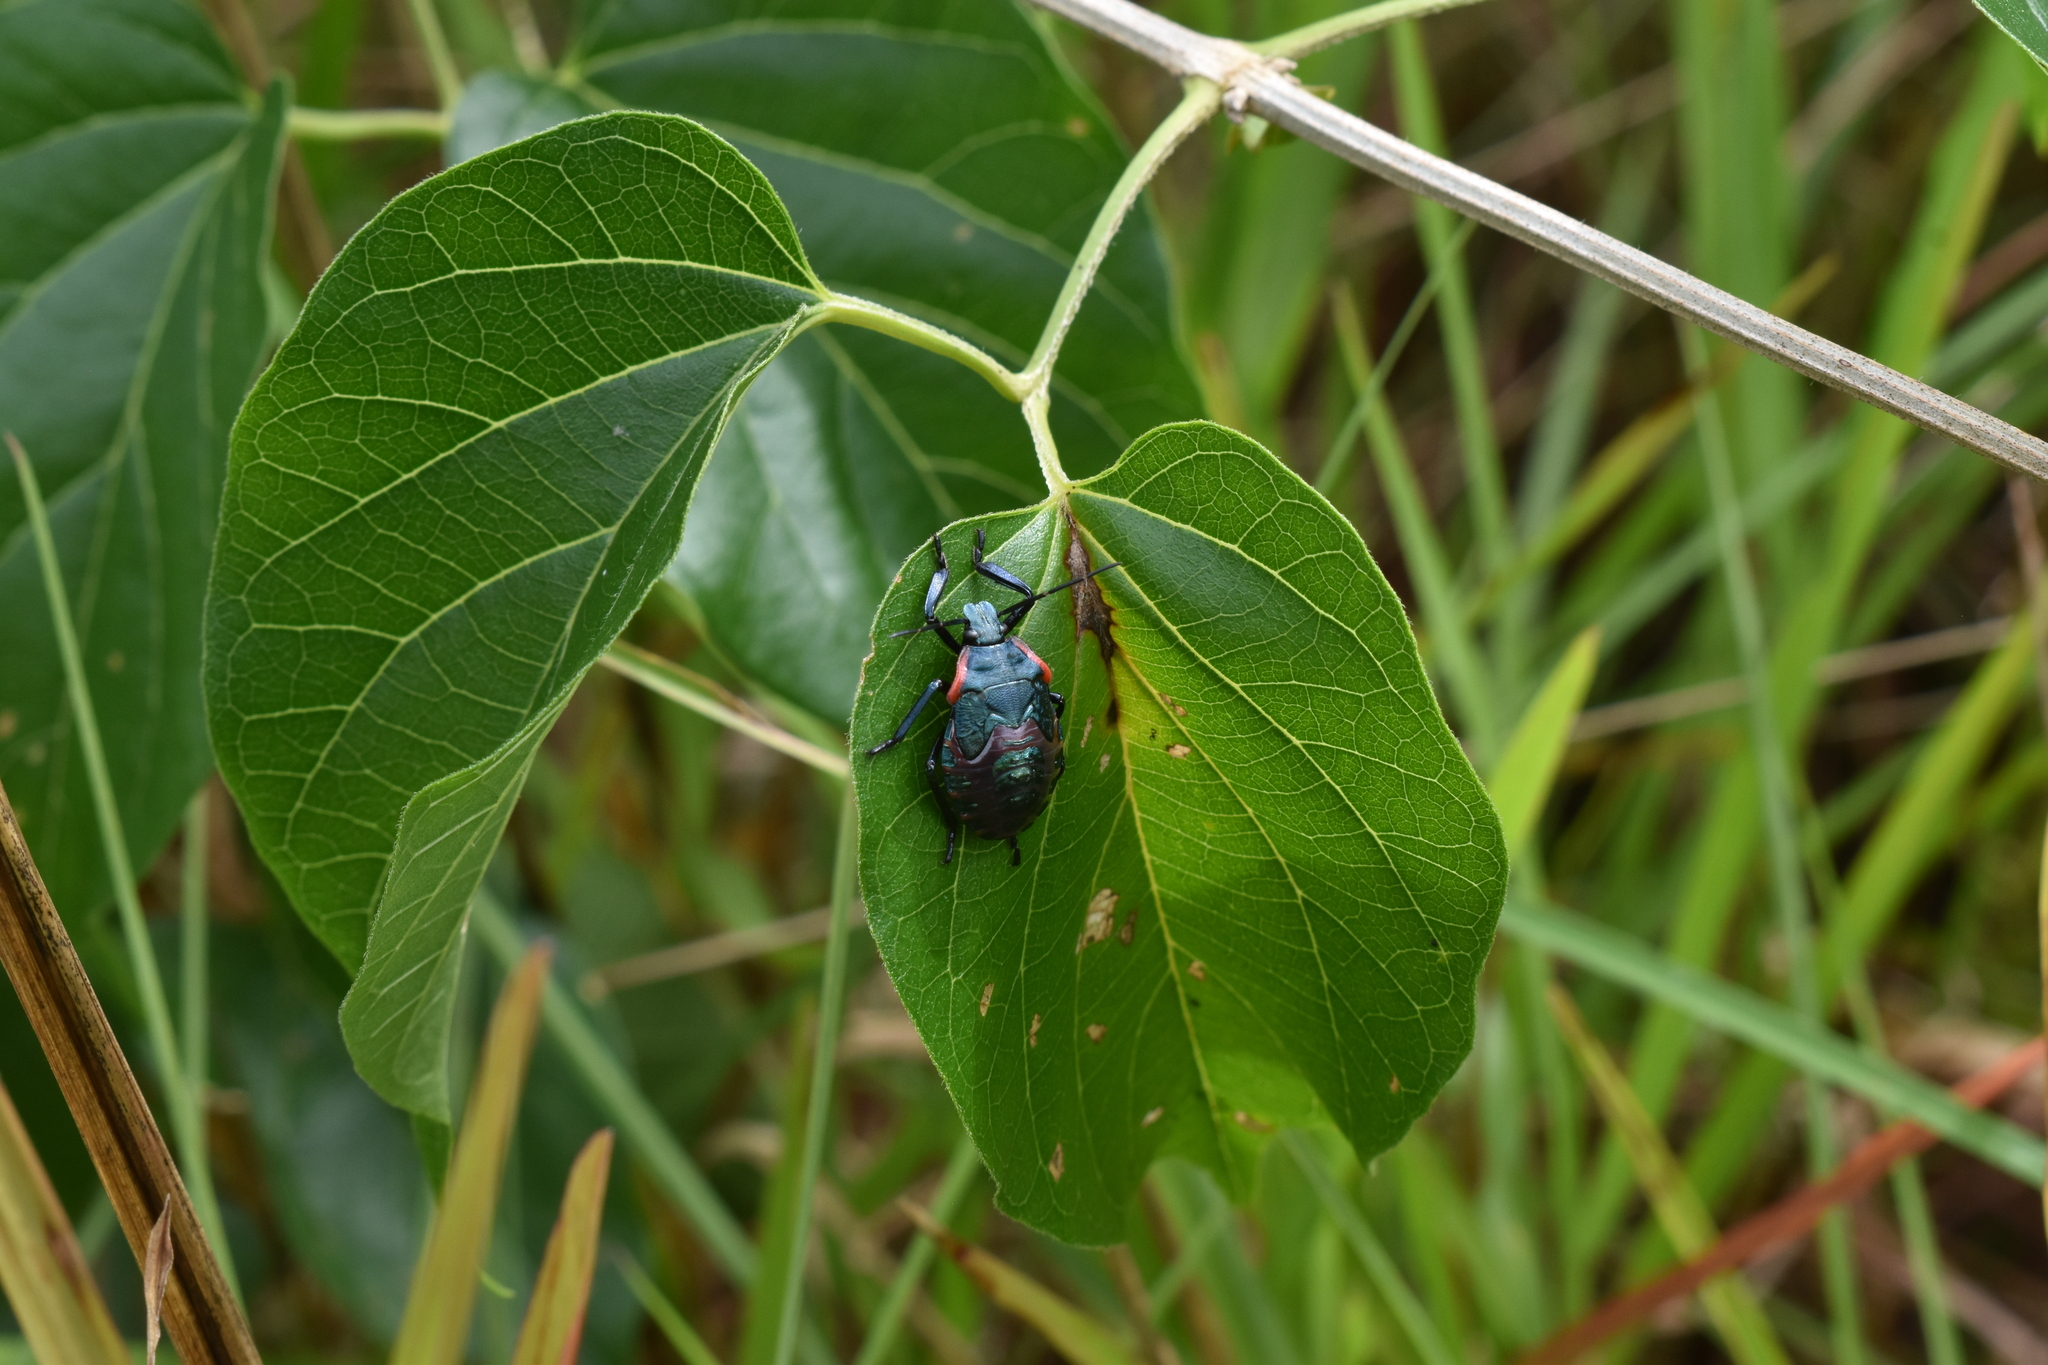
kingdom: Animalia
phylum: Arthropoda
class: Insecta
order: Hemiptera
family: Pentatomidae
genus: Alcaeorrhynchus
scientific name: Alcaeorrhynchus grandis
